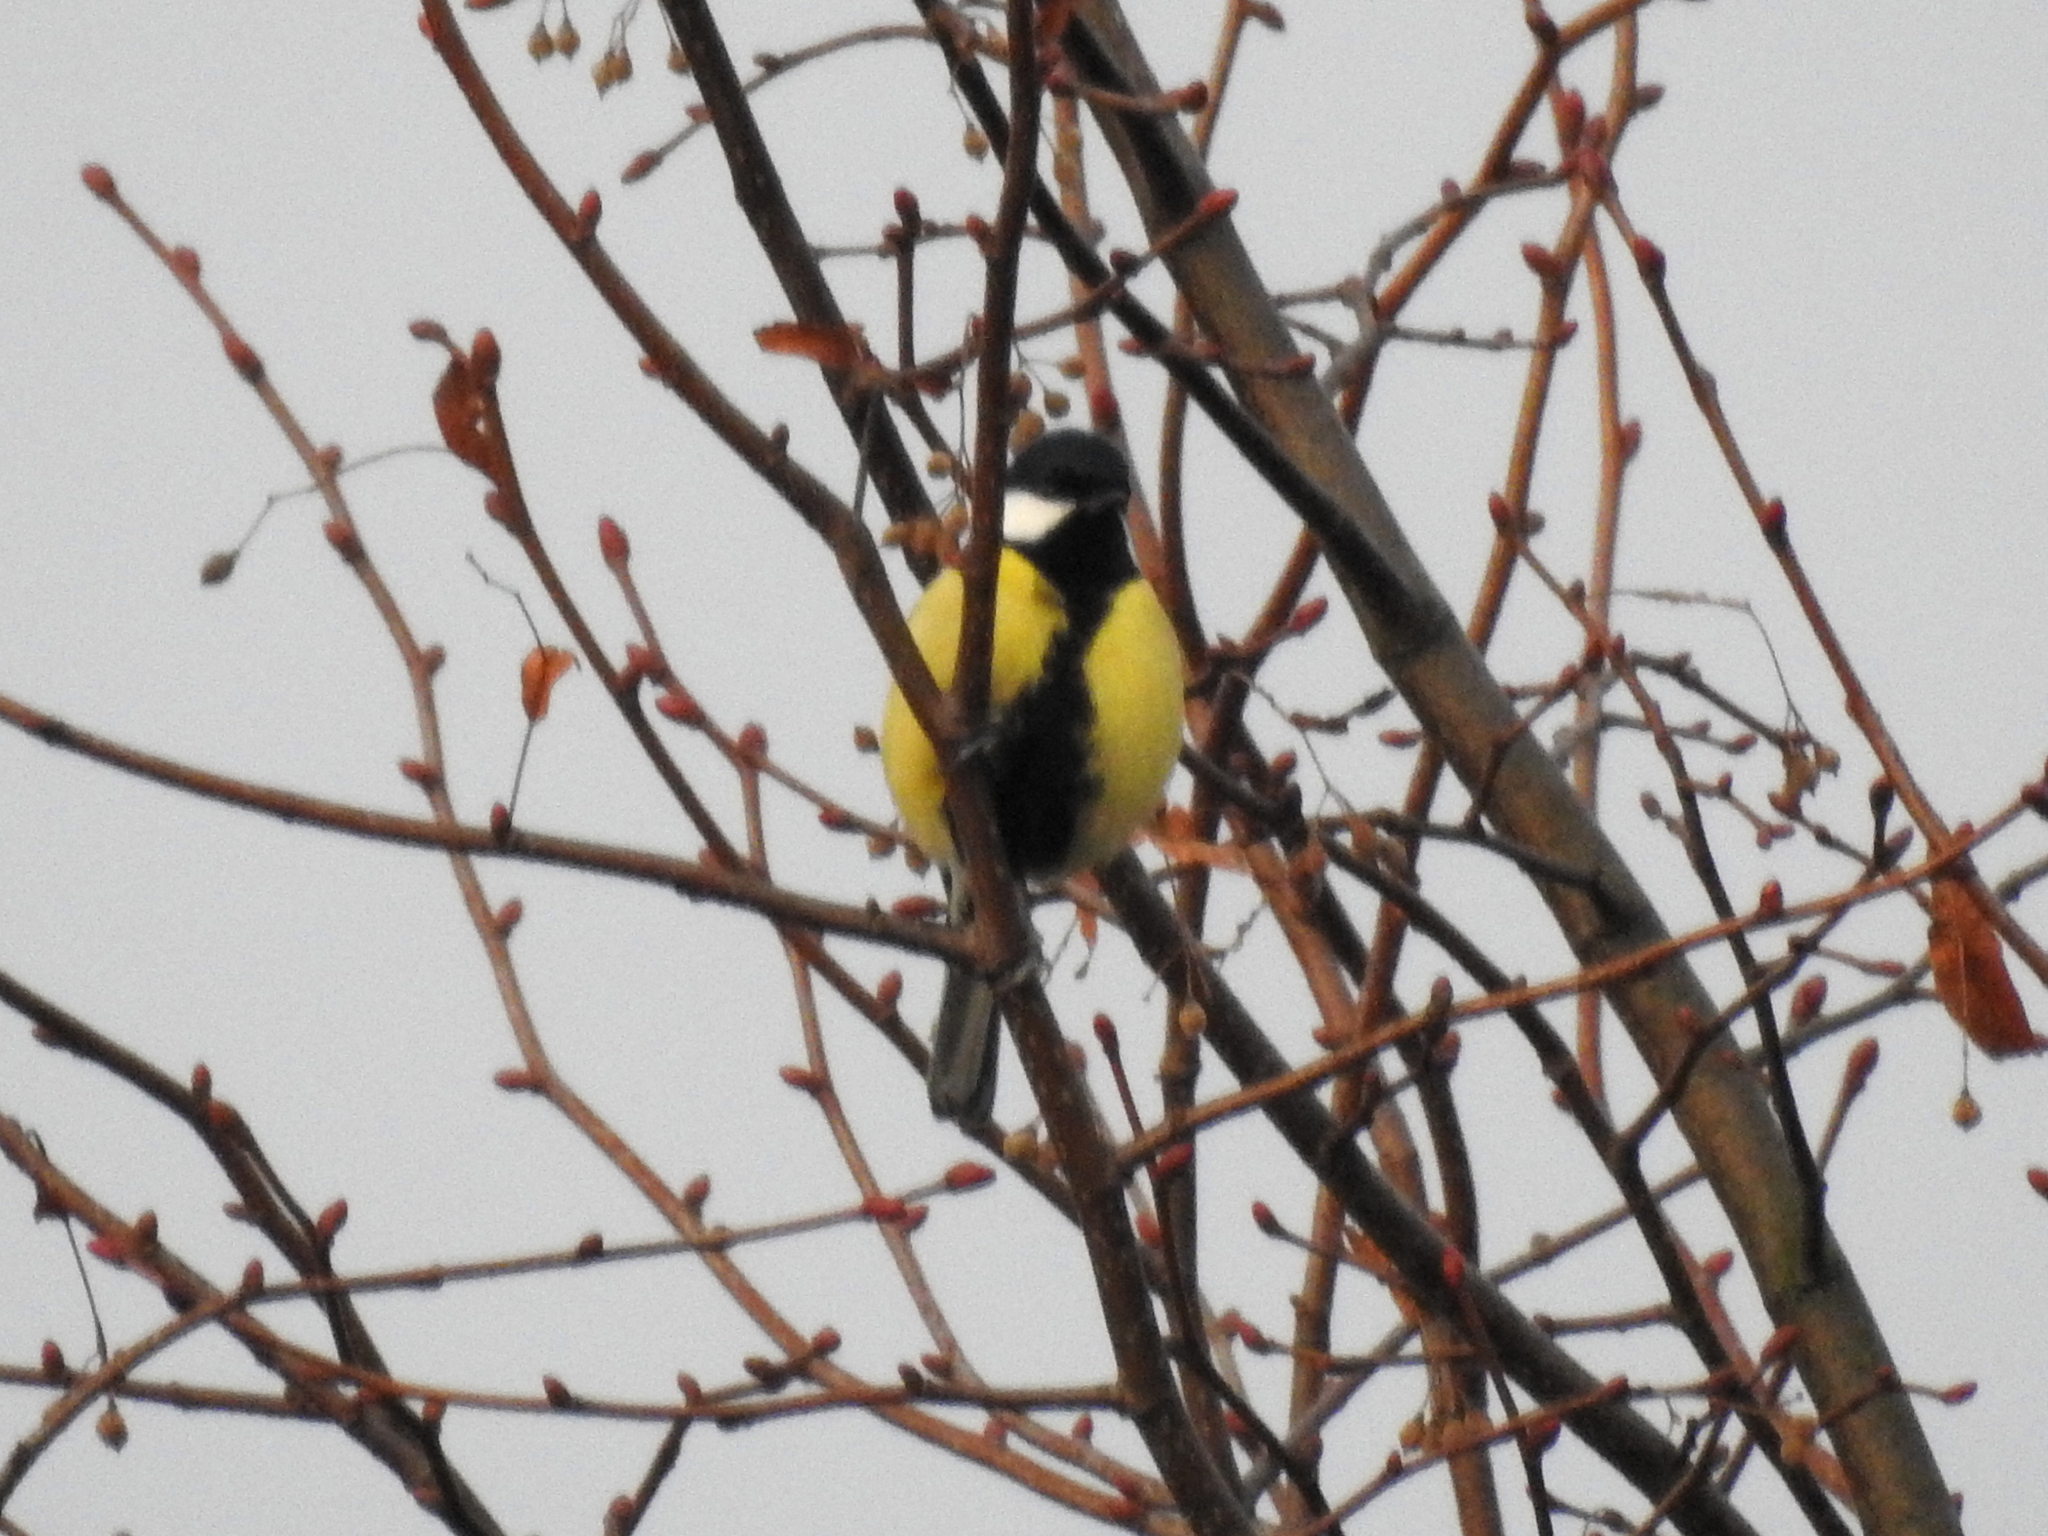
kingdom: Animalia
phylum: Chordata
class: Aves
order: Passeriformes
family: Paridae
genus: Parus
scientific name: Parus major
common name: Great tit
